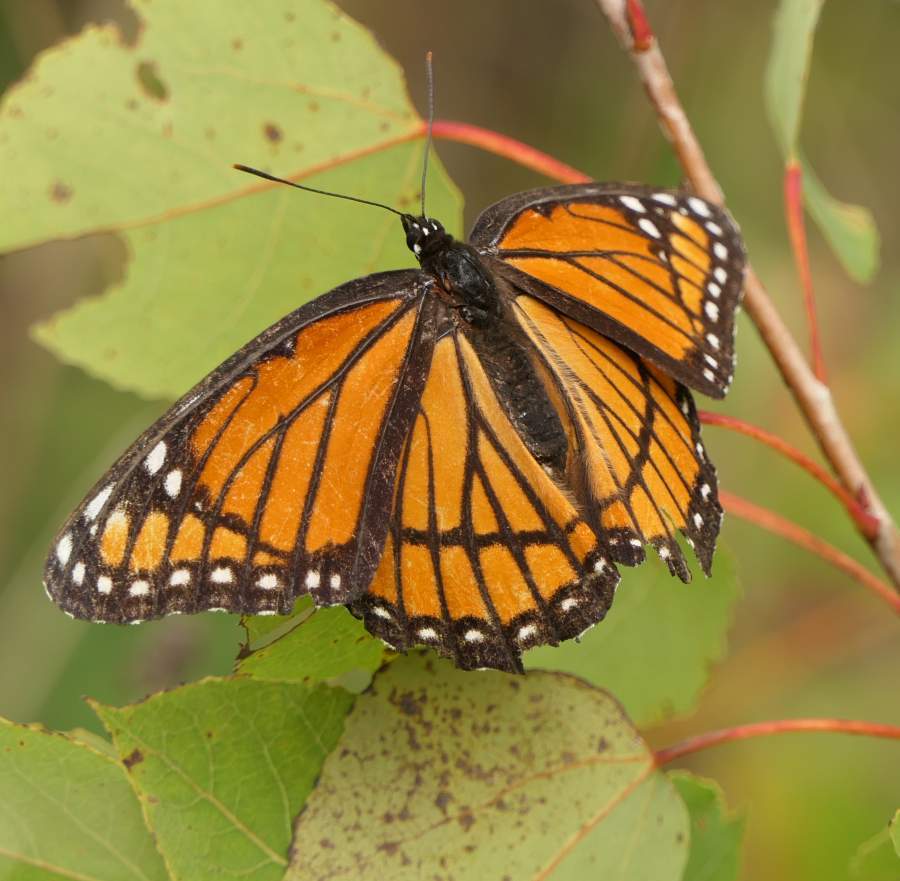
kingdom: Animalia
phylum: Arthropoda
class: Insecta
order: Lepidoptera
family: Nymphalidae
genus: Limenitis
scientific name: Limenitis archippus
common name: Viceroy
